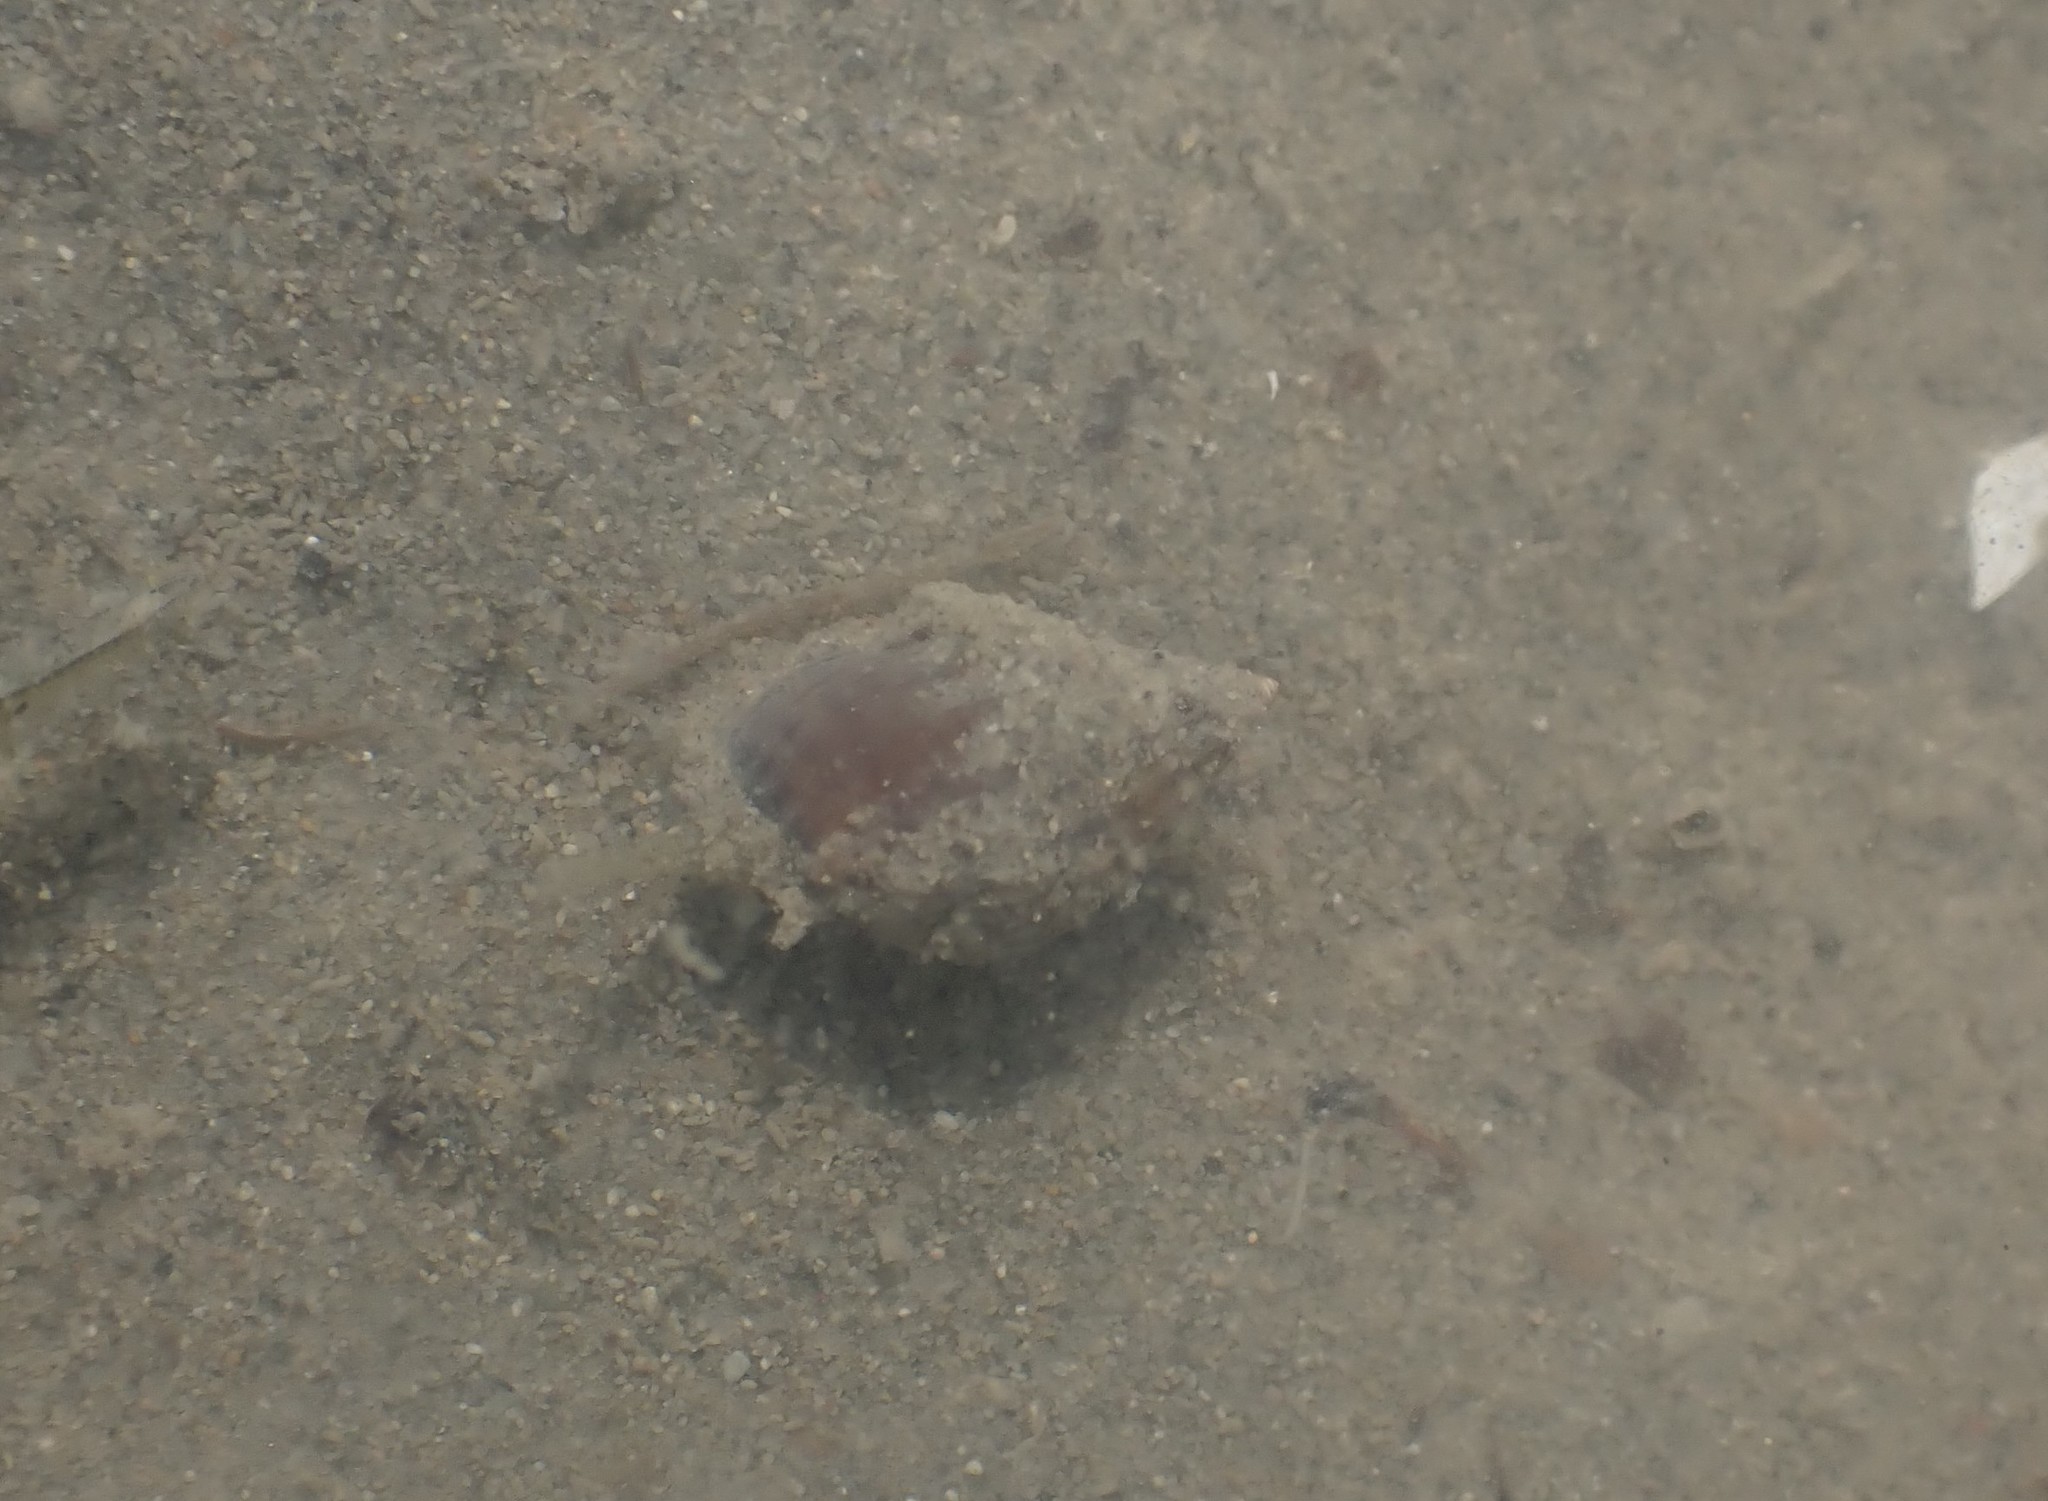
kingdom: Animalia
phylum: Mollusca
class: Gastropoda
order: Neogastropoda
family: Nassariidae
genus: Tritia
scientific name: Tritia burchardi
